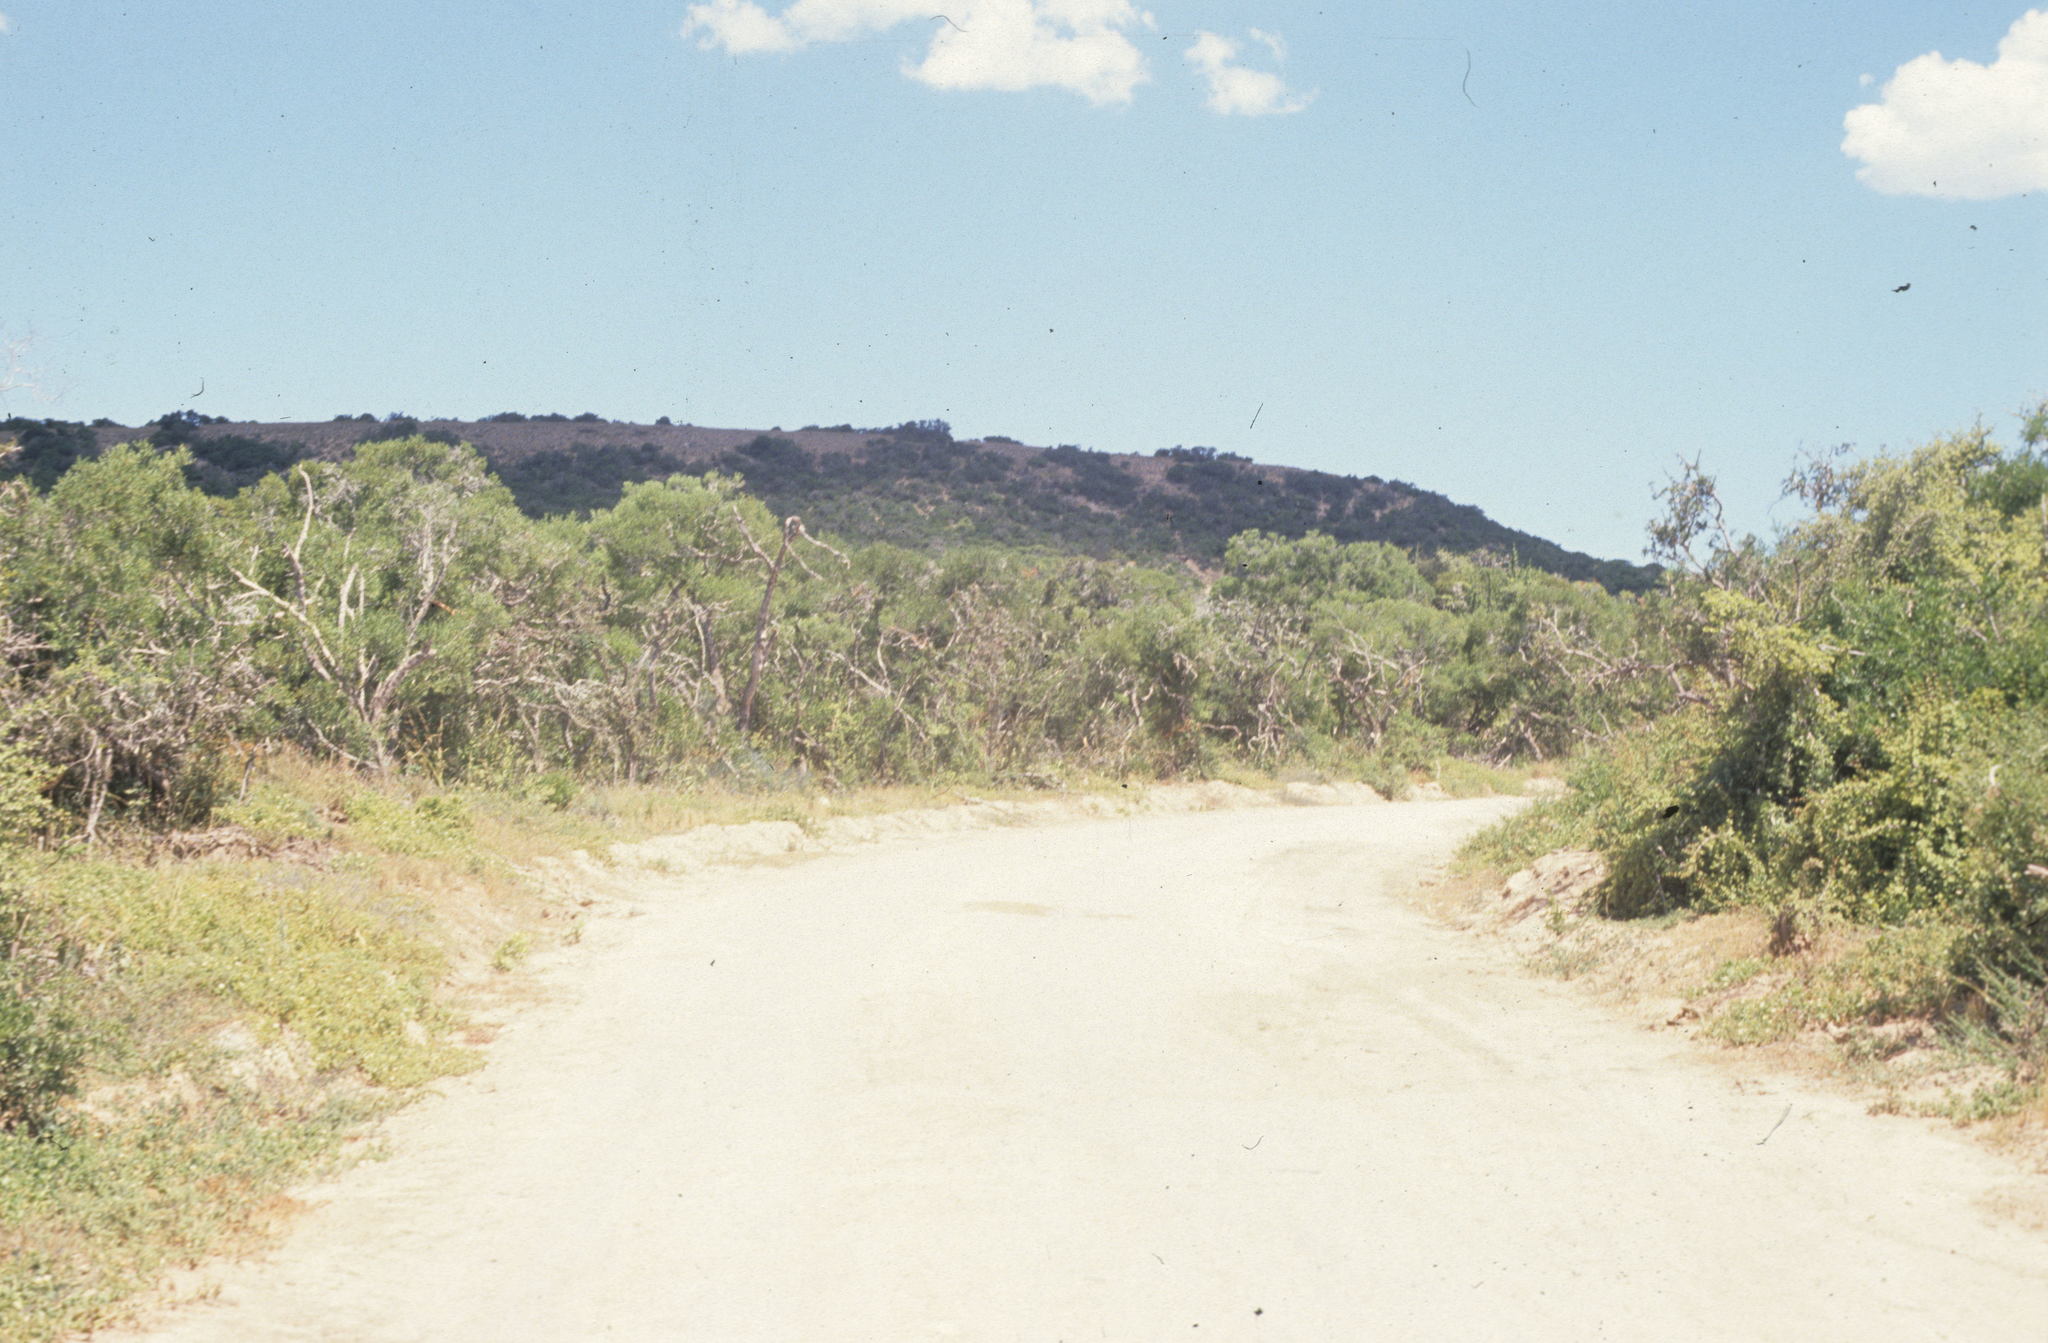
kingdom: Plantae
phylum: Tracheophyta
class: Magnoliopsida
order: Caryophyllales
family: Didiereaceae
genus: Portulacaria
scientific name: Portulacaria afra
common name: Elephant-bush
